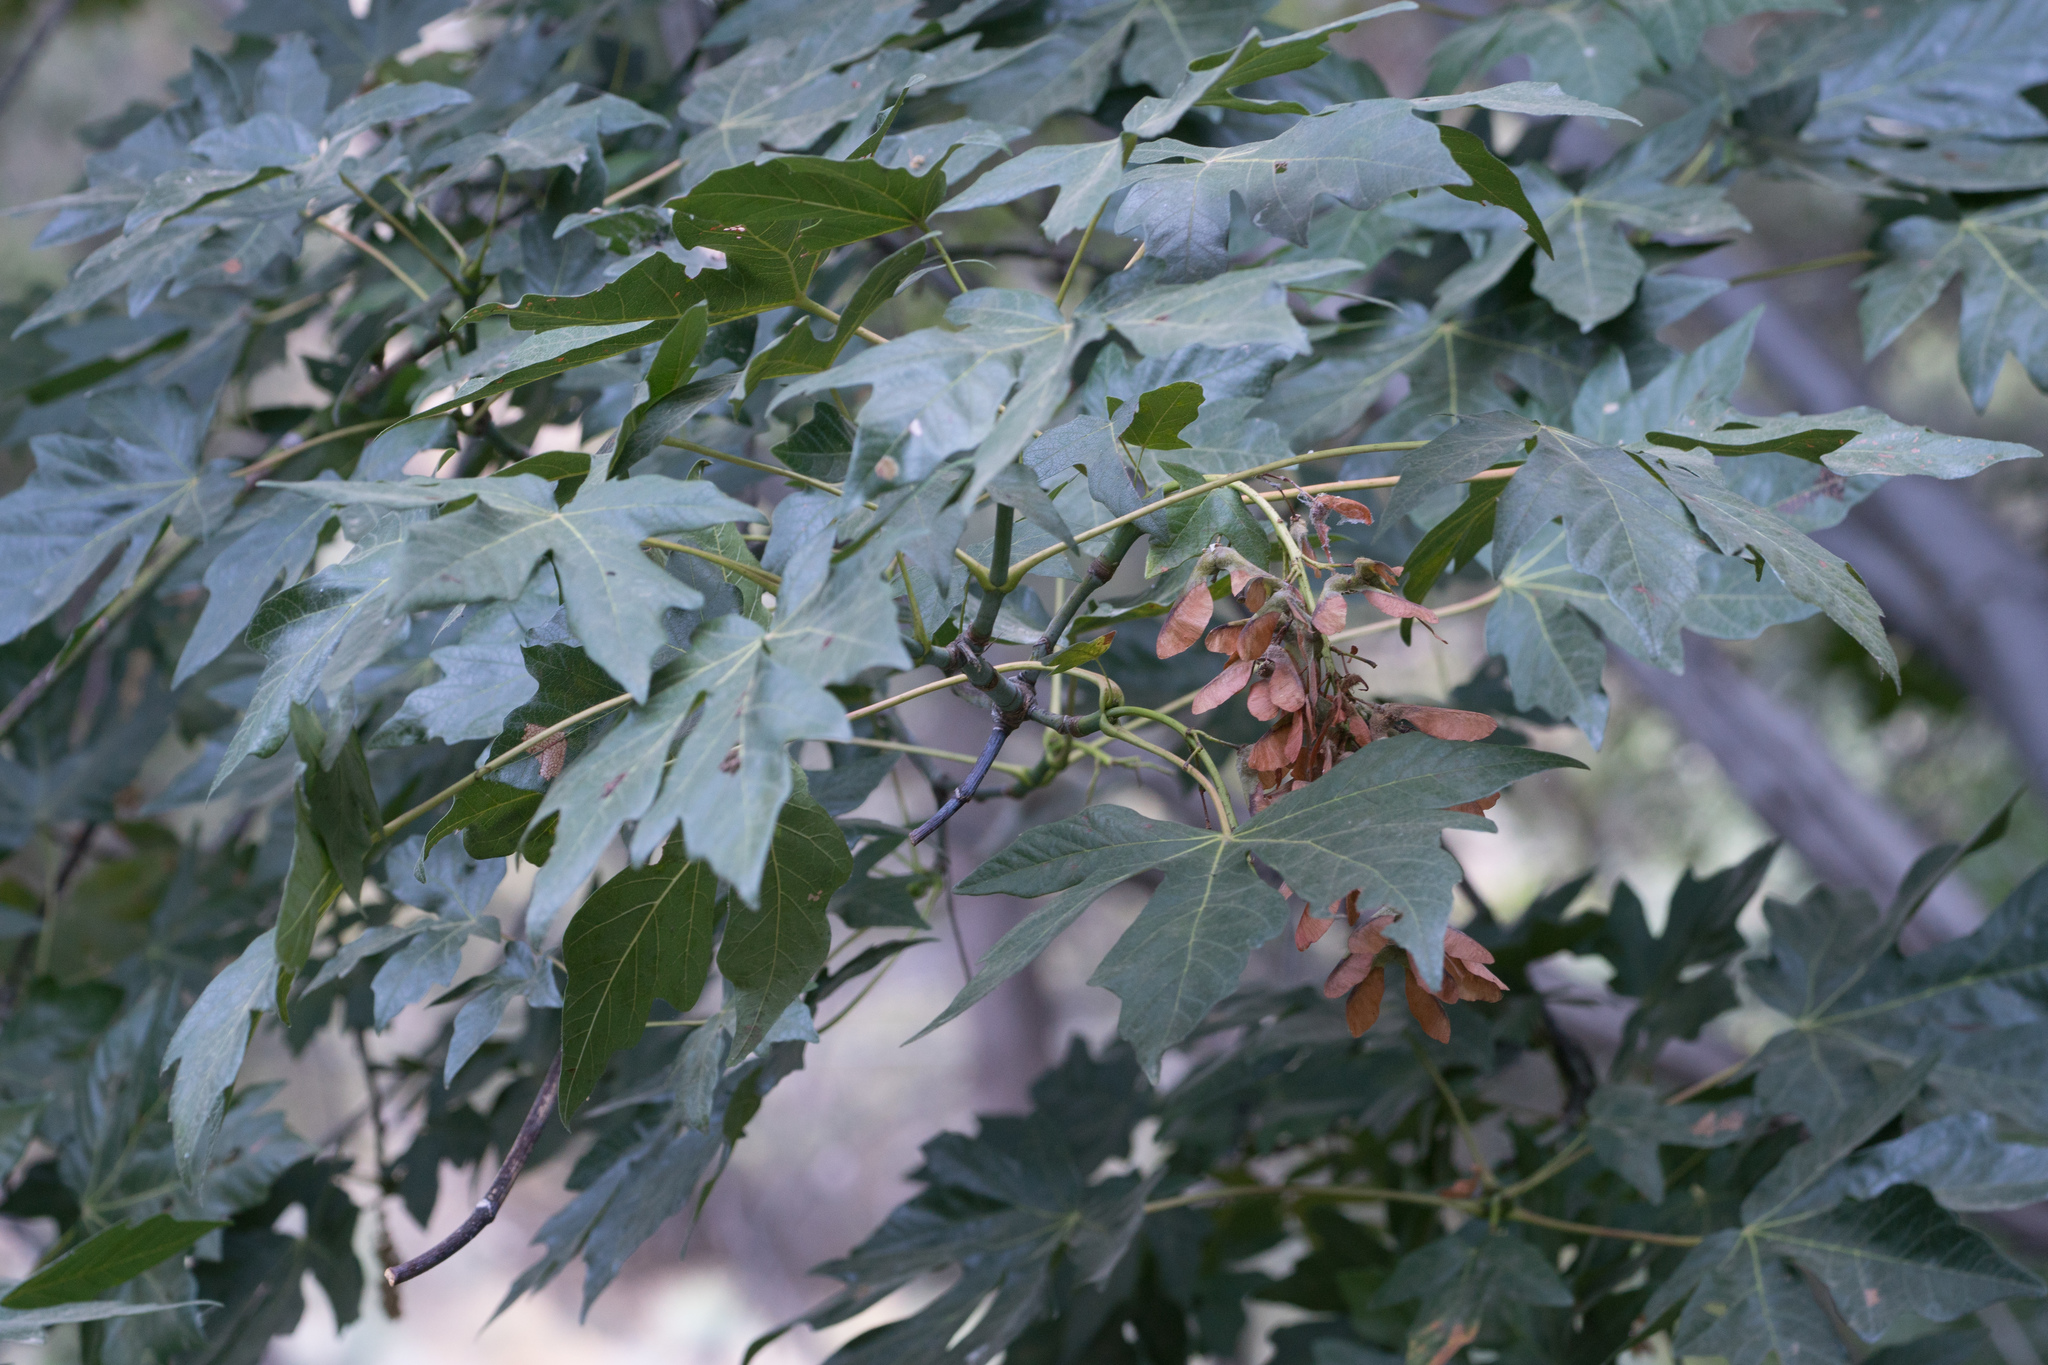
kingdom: Plantae
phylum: Tracheophyta
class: Magnoliopsida
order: Sapindales
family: Sapindaceae
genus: Acer
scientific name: Acer macrophyllum
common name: Oregon maple
